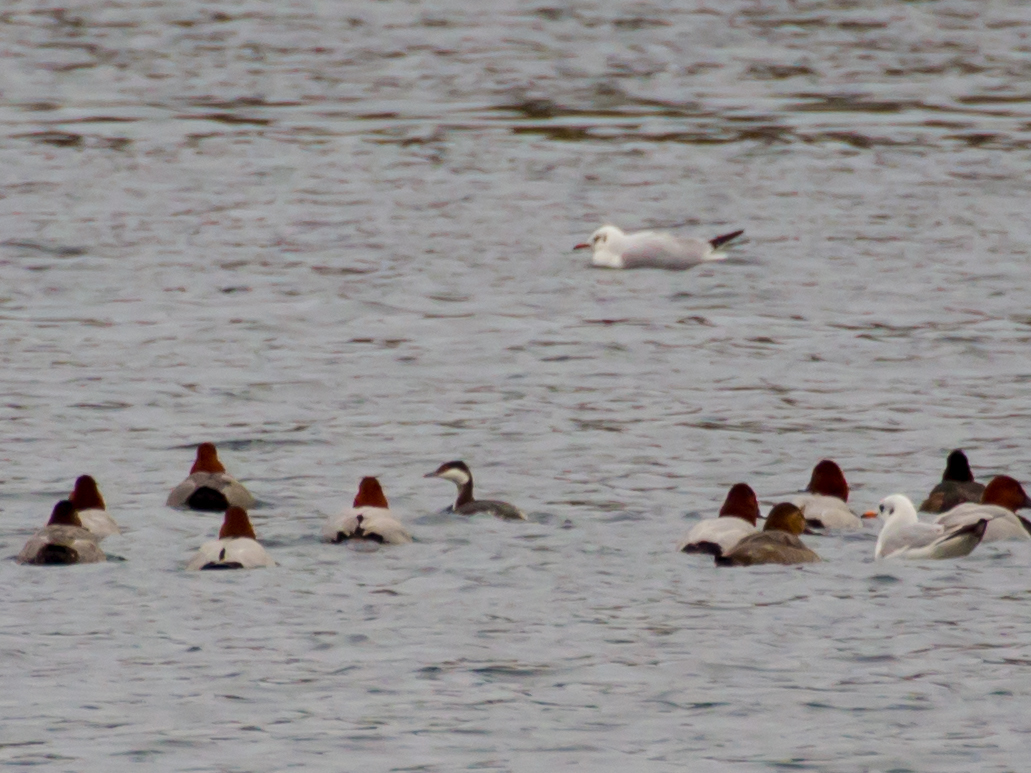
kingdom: Animalia
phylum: Chordata
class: Aves
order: Podicipediformes
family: Podicipedidae
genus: Podiceps
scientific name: Podiceps auritus
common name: Horned grebe
